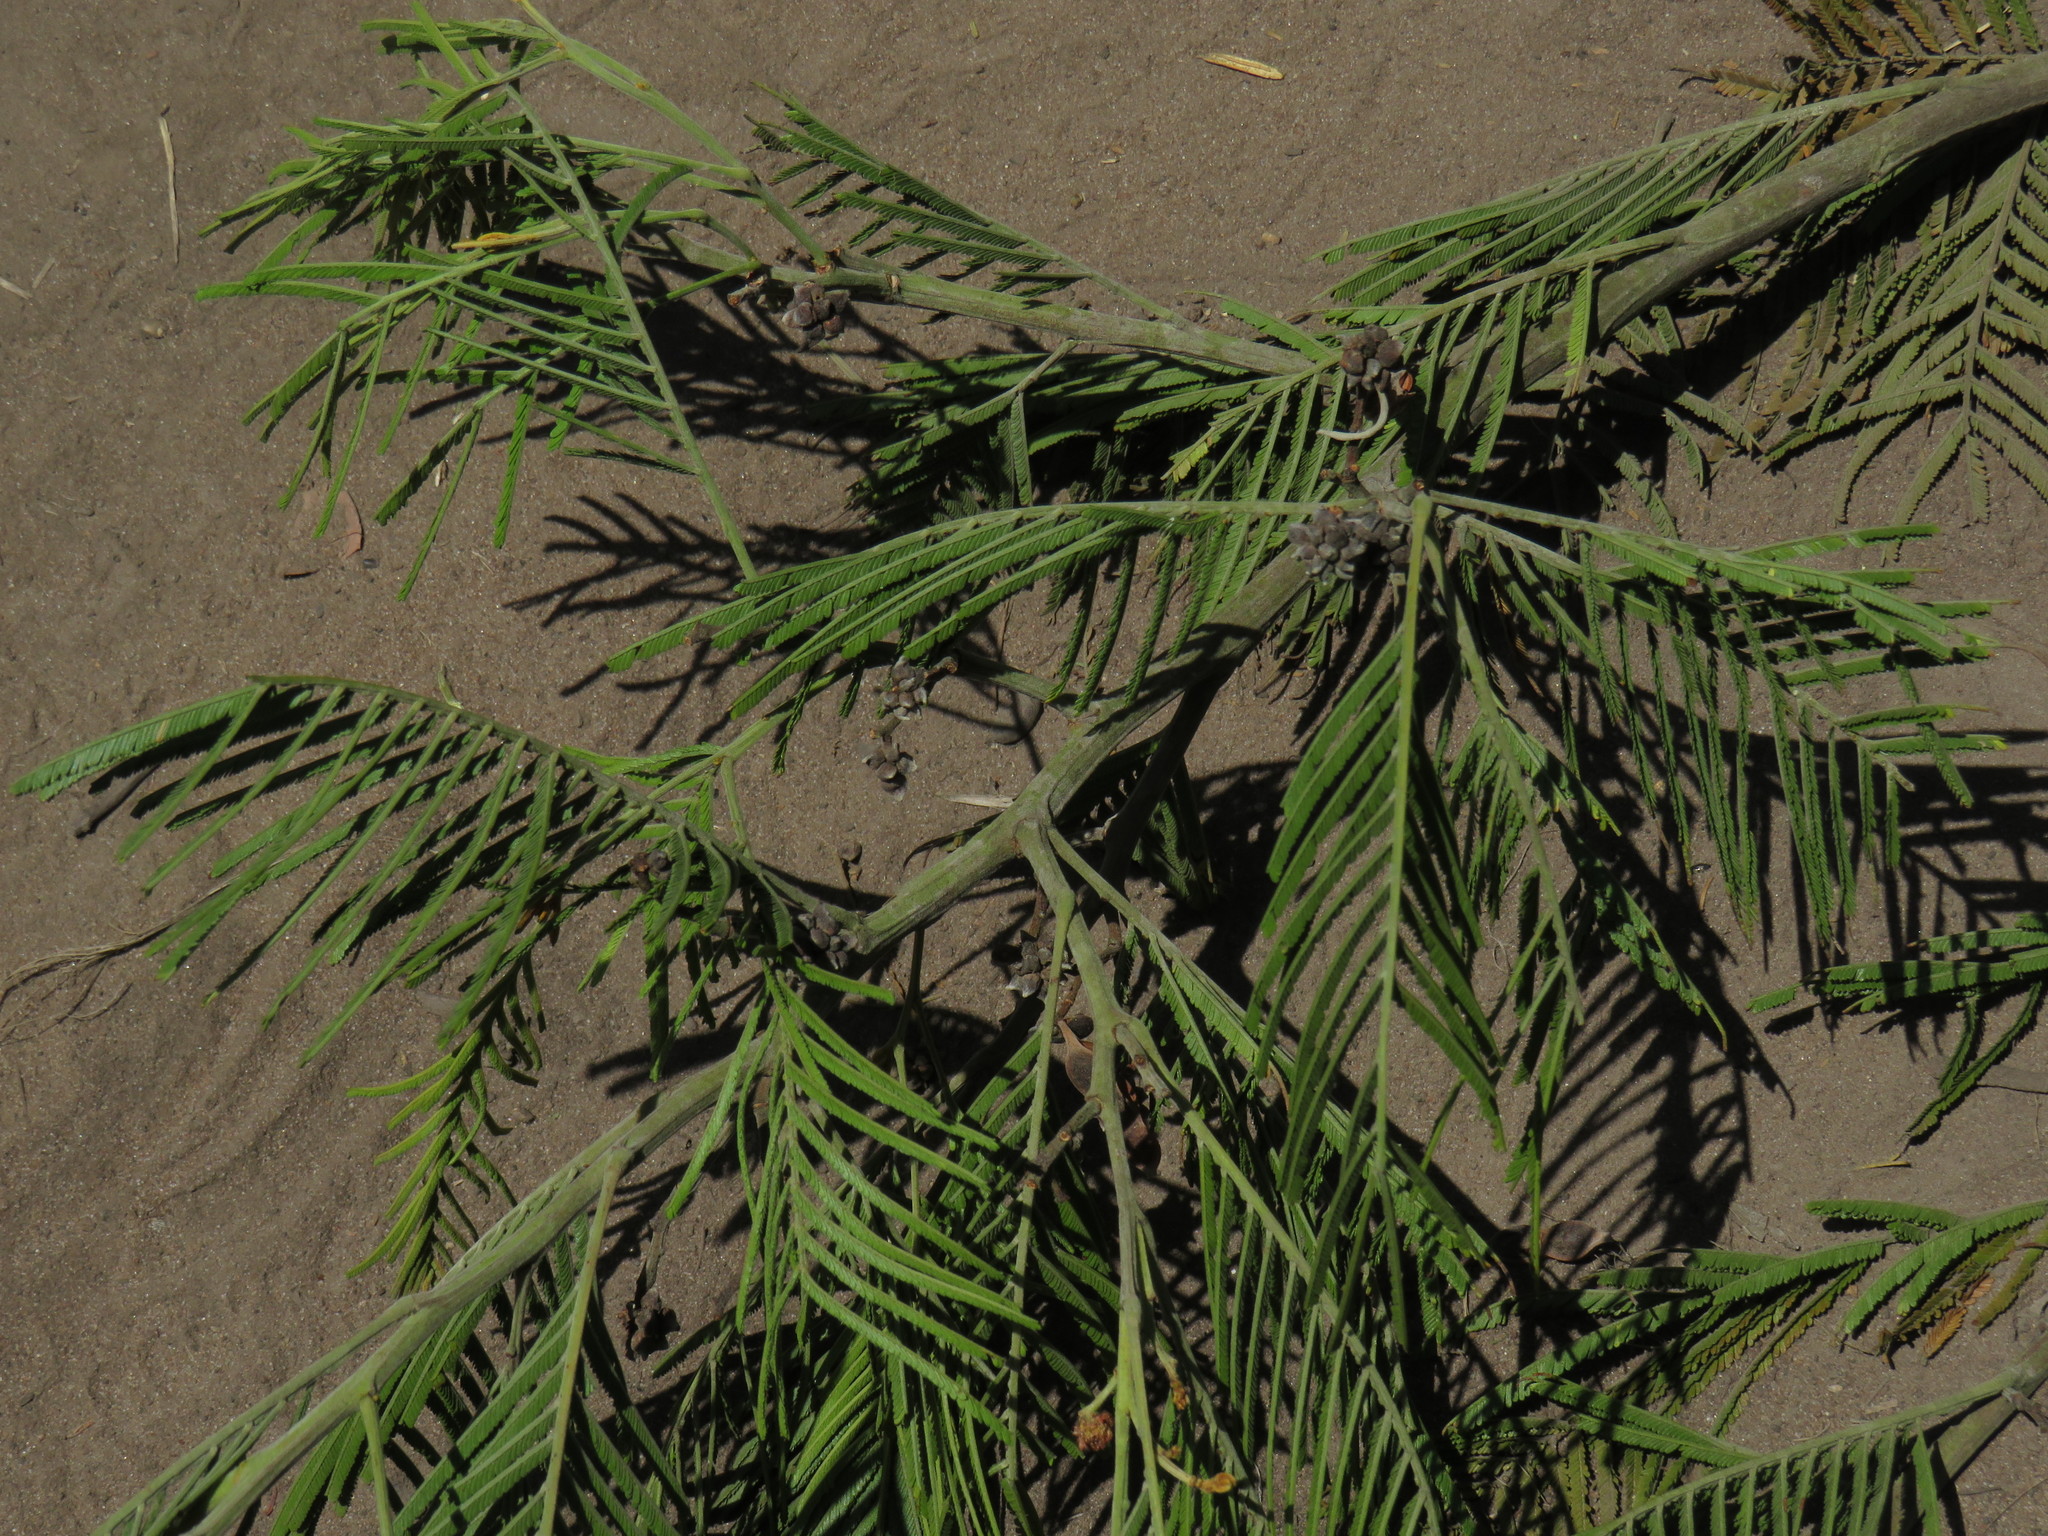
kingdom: Plantae
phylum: Tracheophyta
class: Magnoliopsida
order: Fabales
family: Fabaceae
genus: Acacia
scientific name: Acacia mearnsii
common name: Black wattle
